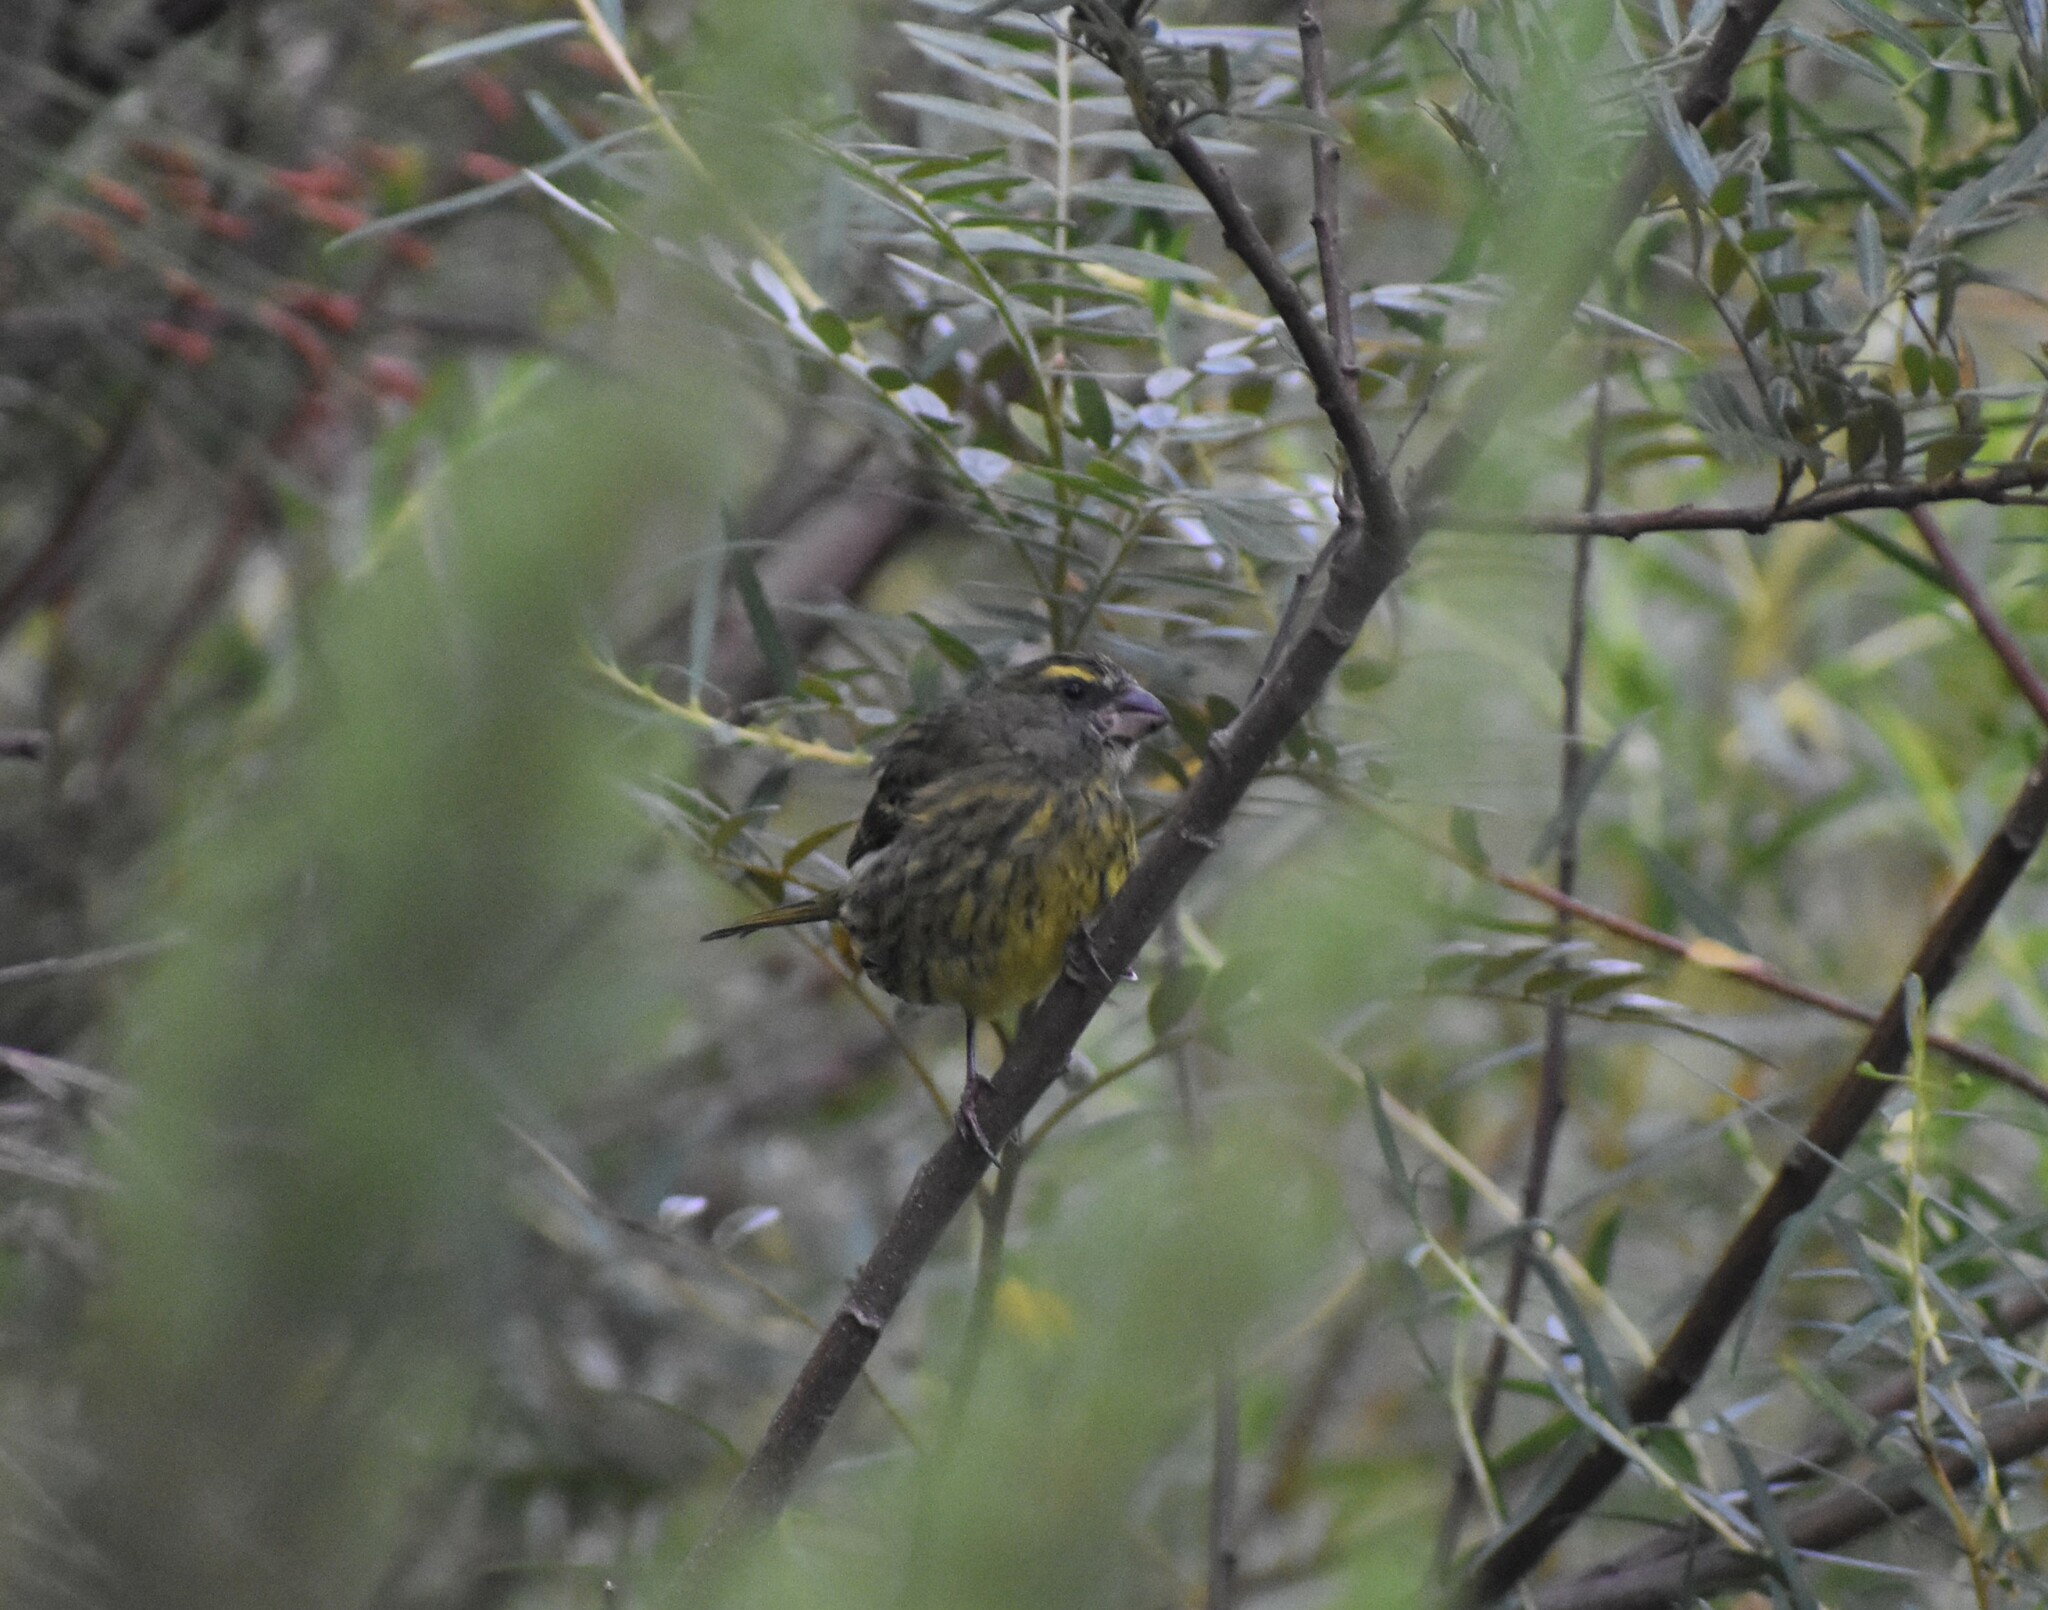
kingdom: Animalia
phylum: Chordata
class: Aves
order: Passeriformes
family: Fringillidae
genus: Crithagra
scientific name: Crithagra scotops
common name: Forest canary
